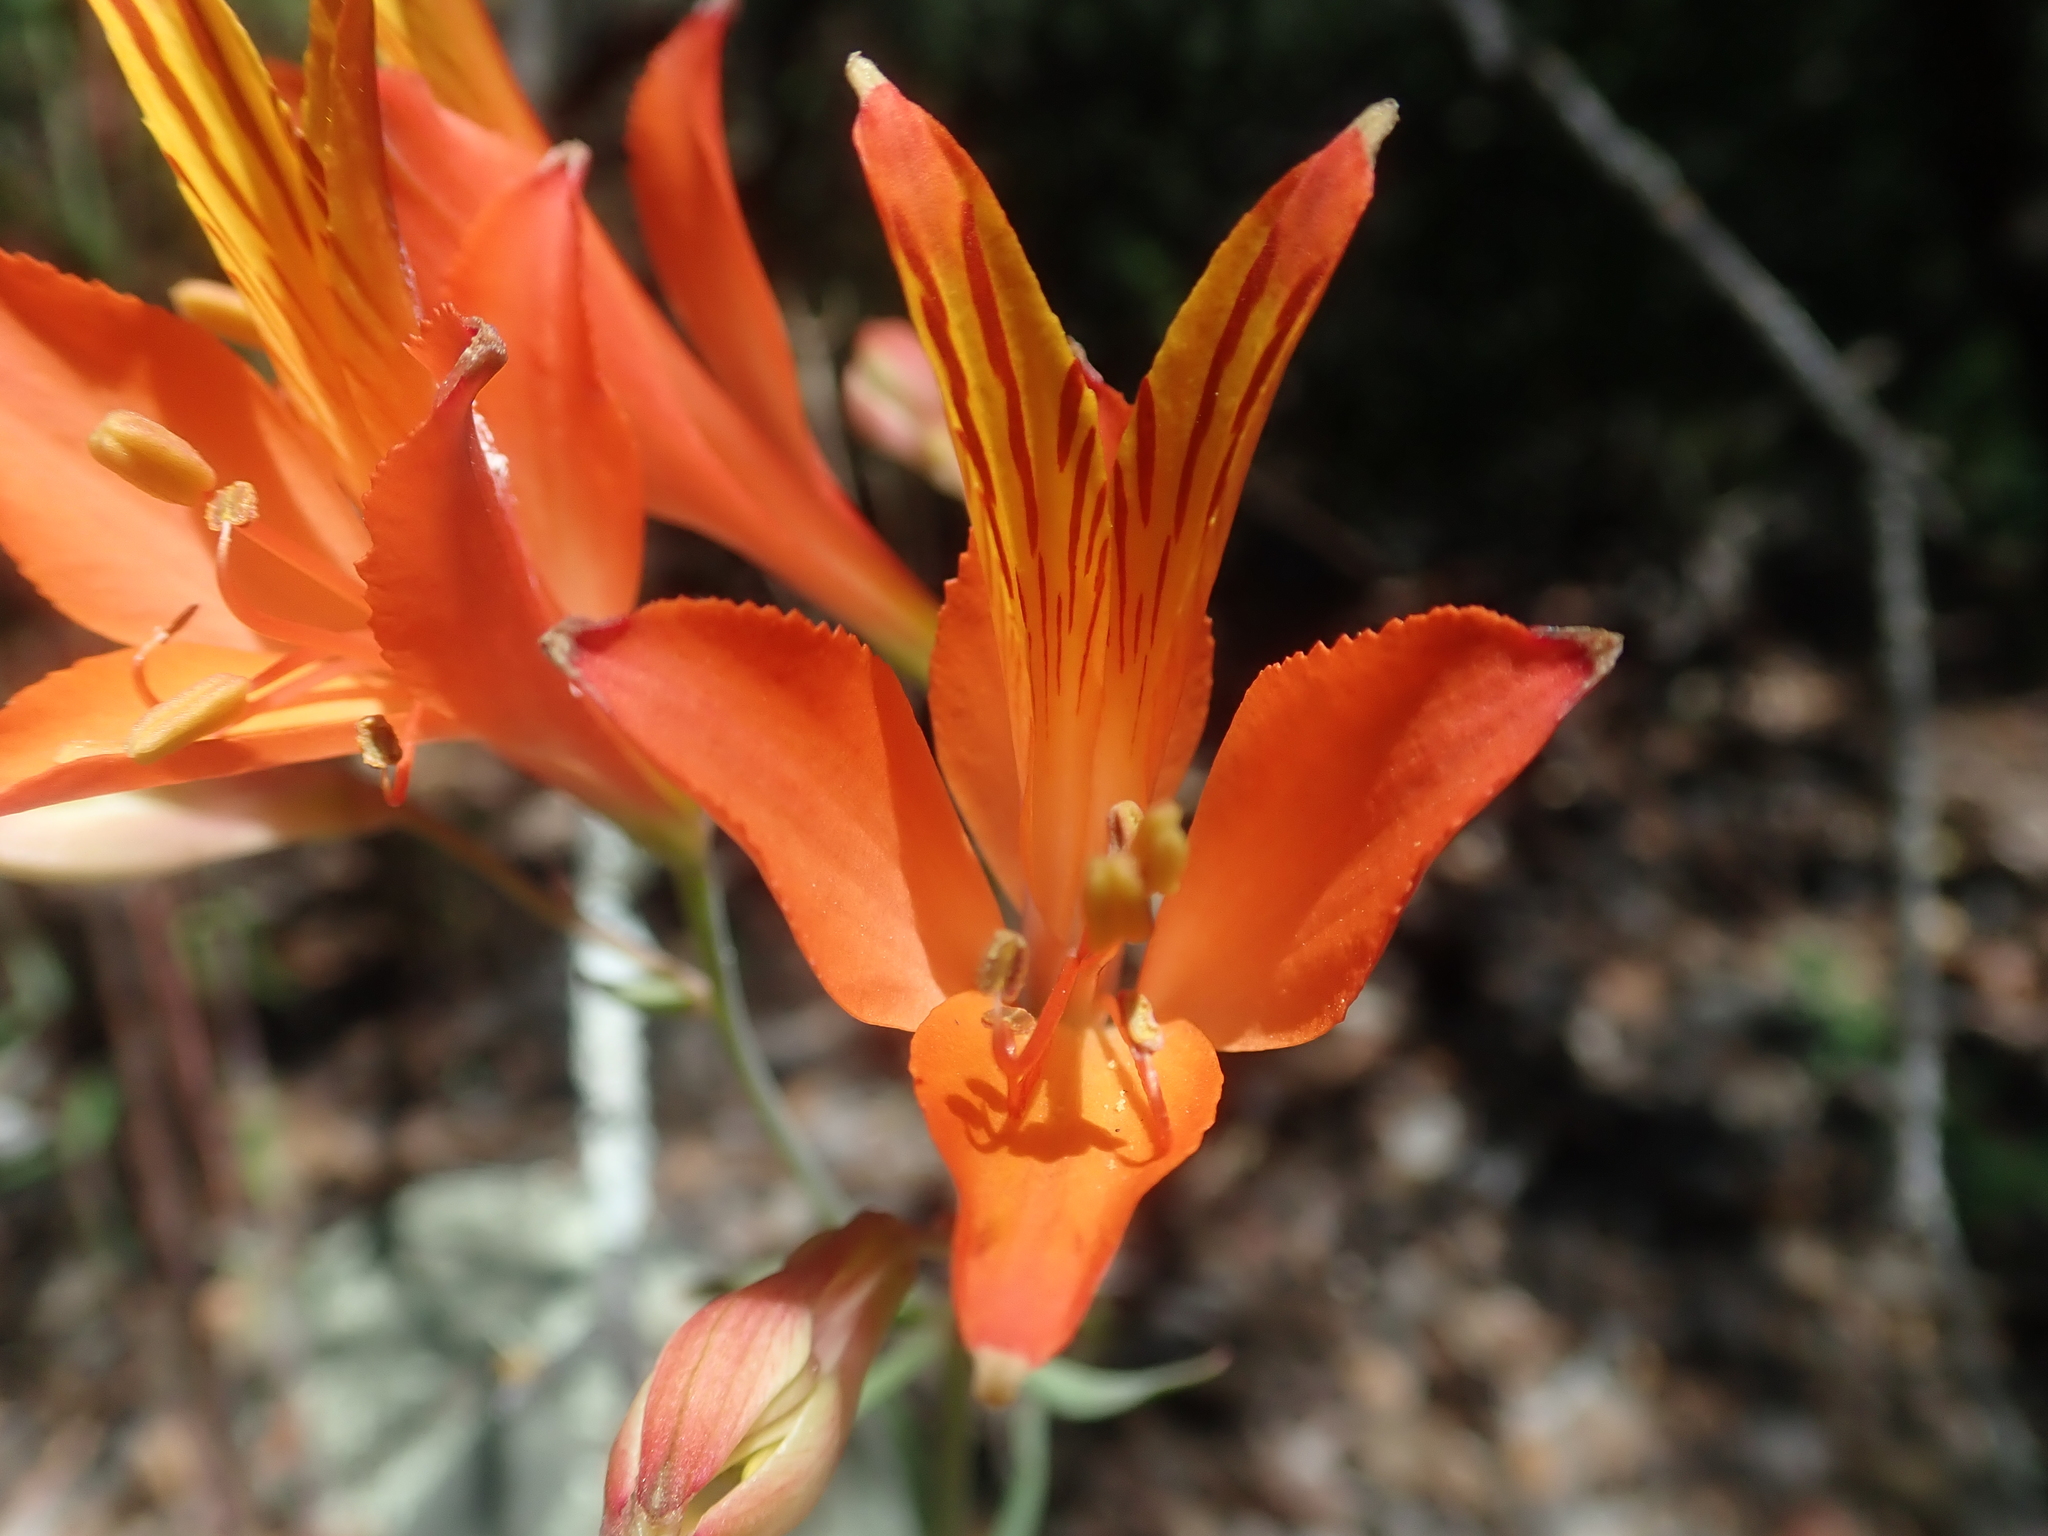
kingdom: Plantae
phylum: Tracheophyta
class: Liliopsida
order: Liliales
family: Alstroemeriaceae
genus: Alstroemeria
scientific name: Alstroemeria ligtu
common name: St. martin's-flower
